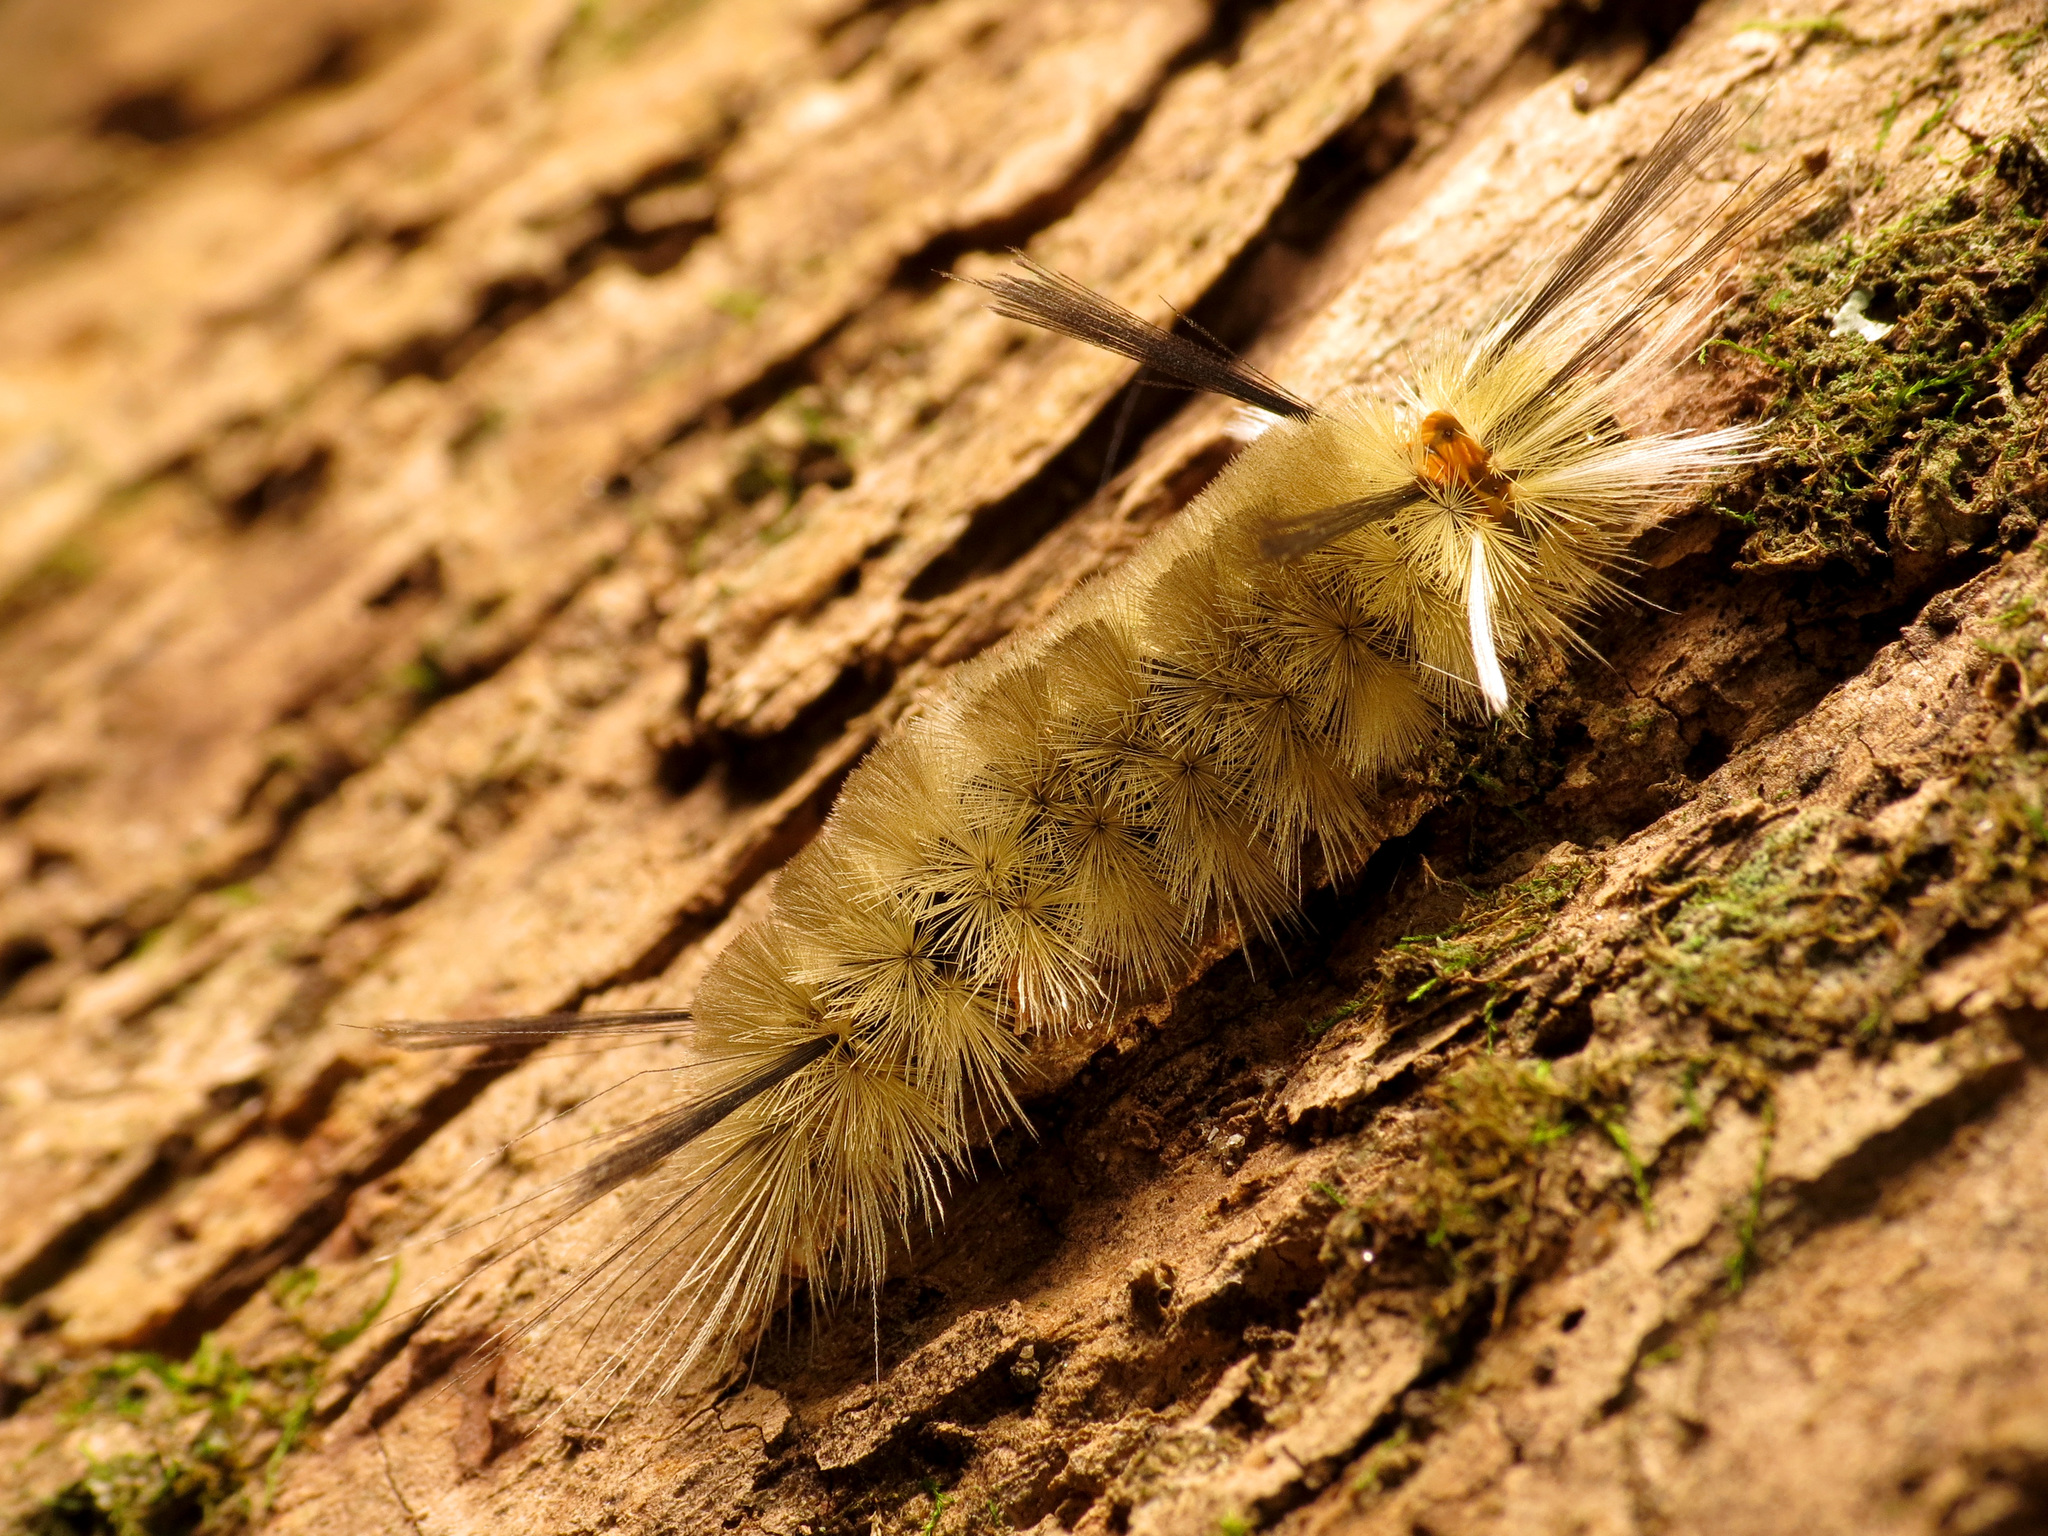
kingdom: Animalia
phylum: Arthropoda
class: Insecta
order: Lepidoptera
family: Erebidae
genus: Halysidota
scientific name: Halysidota tessellaris
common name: Banded tussock moth
